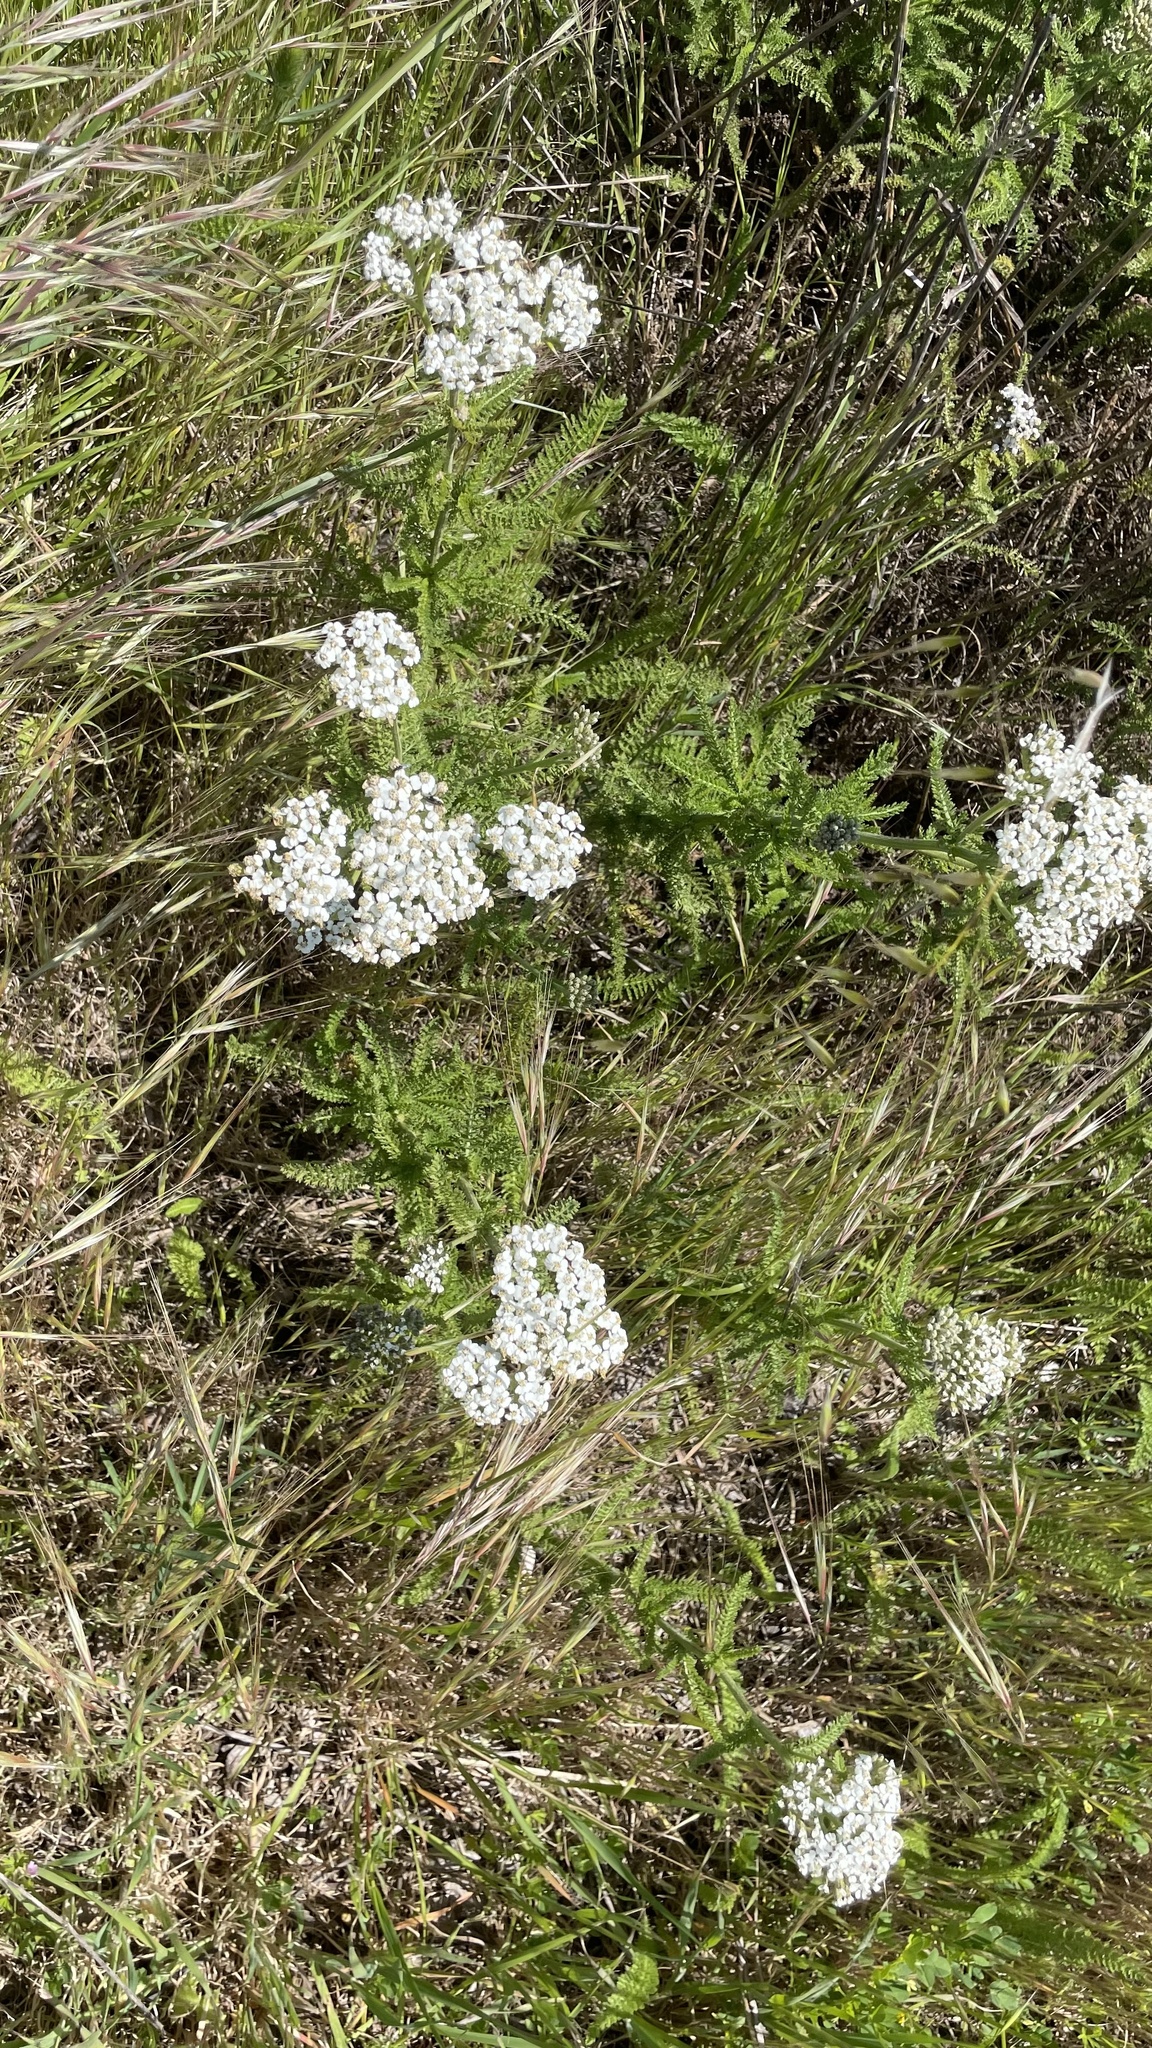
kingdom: Plantae
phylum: Tracheophyta
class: Magnoliopsida
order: Asterales
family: Asteraceae
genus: Achillea
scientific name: Achillea millefolium
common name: Yarrow
